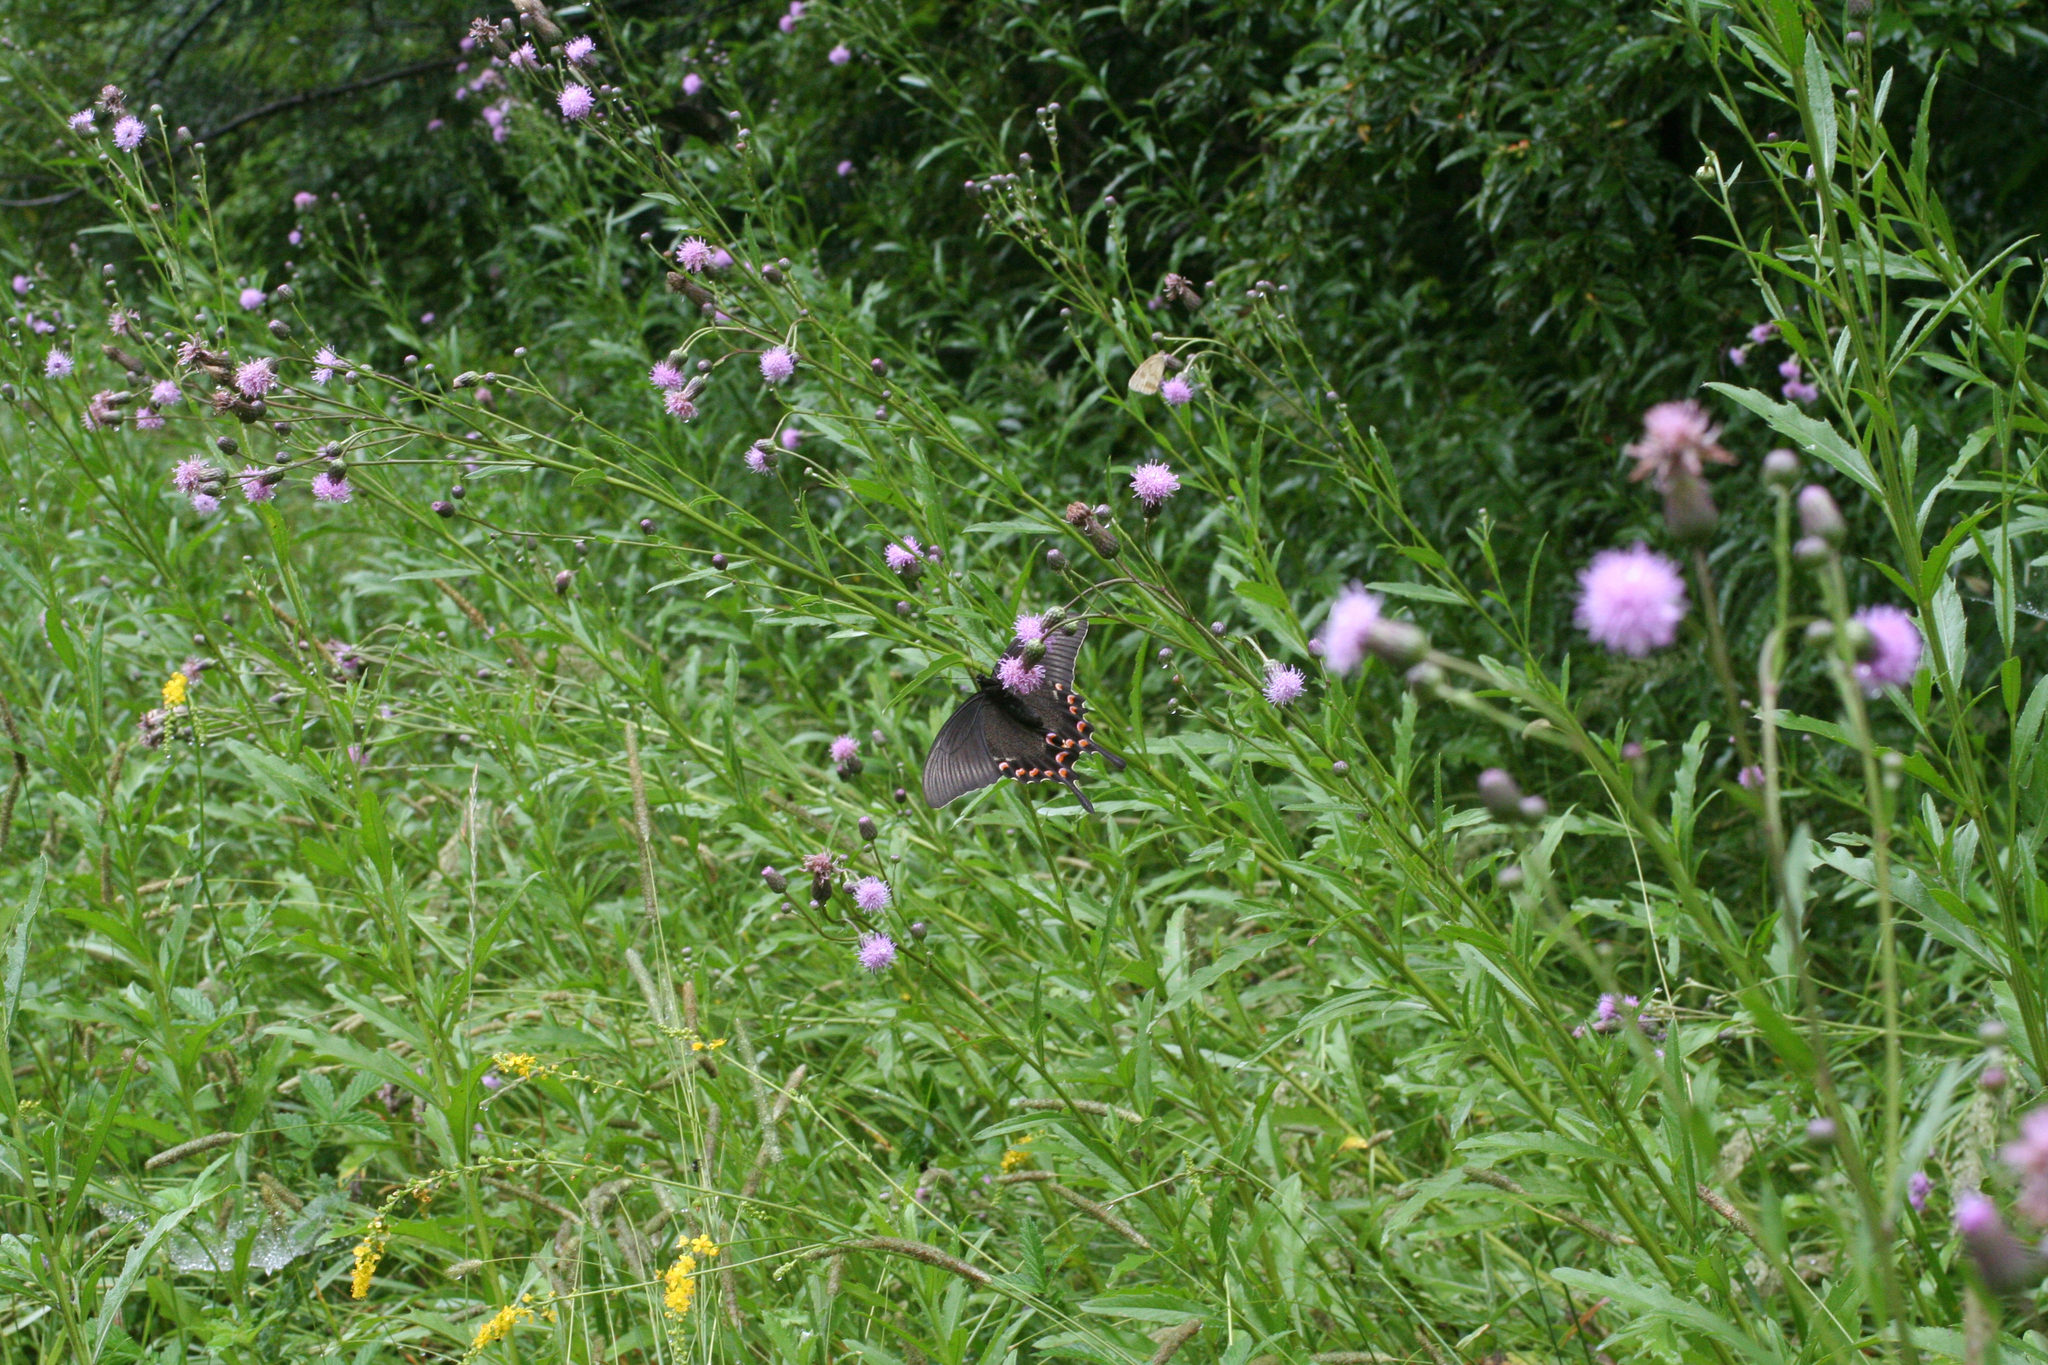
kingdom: Plantae
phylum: Tracheophyta
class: Magnoliopsida
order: Asterales
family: Asteraceae
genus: Cirsium
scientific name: Cirsium arvense
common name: Creeping thistle
